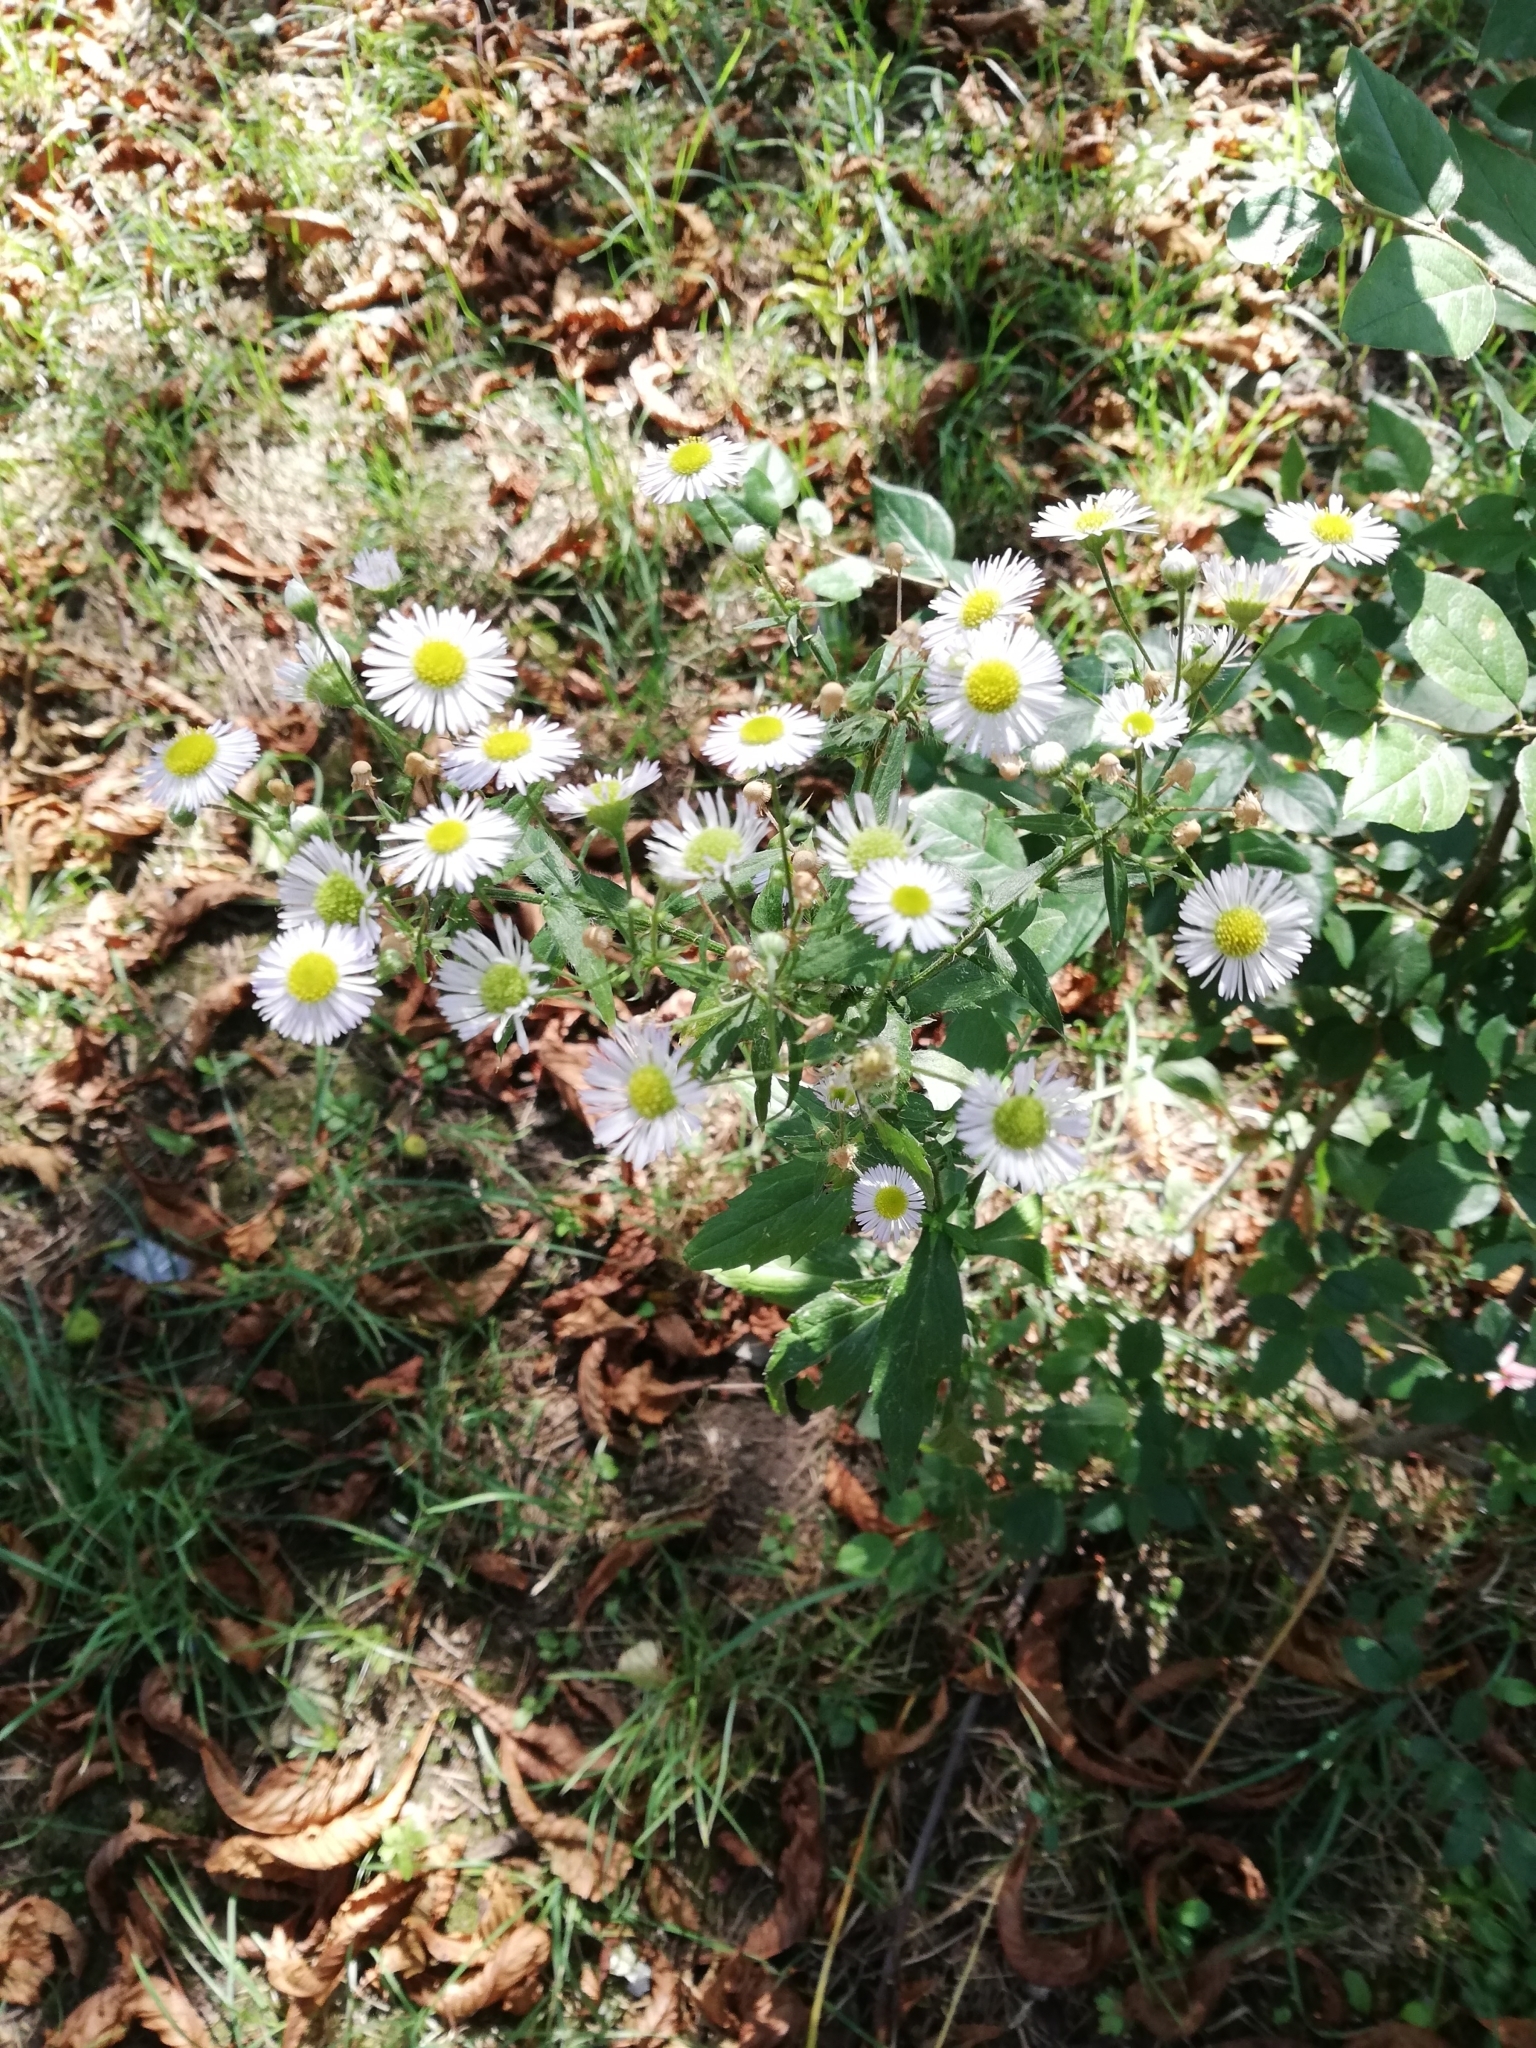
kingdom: Plantae
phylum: Tracheophyta
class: Magnoliopsida
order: Asterales
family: Asteraceae
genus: Erigeron
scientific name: Erigeron annuus
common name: Tall fleabane
